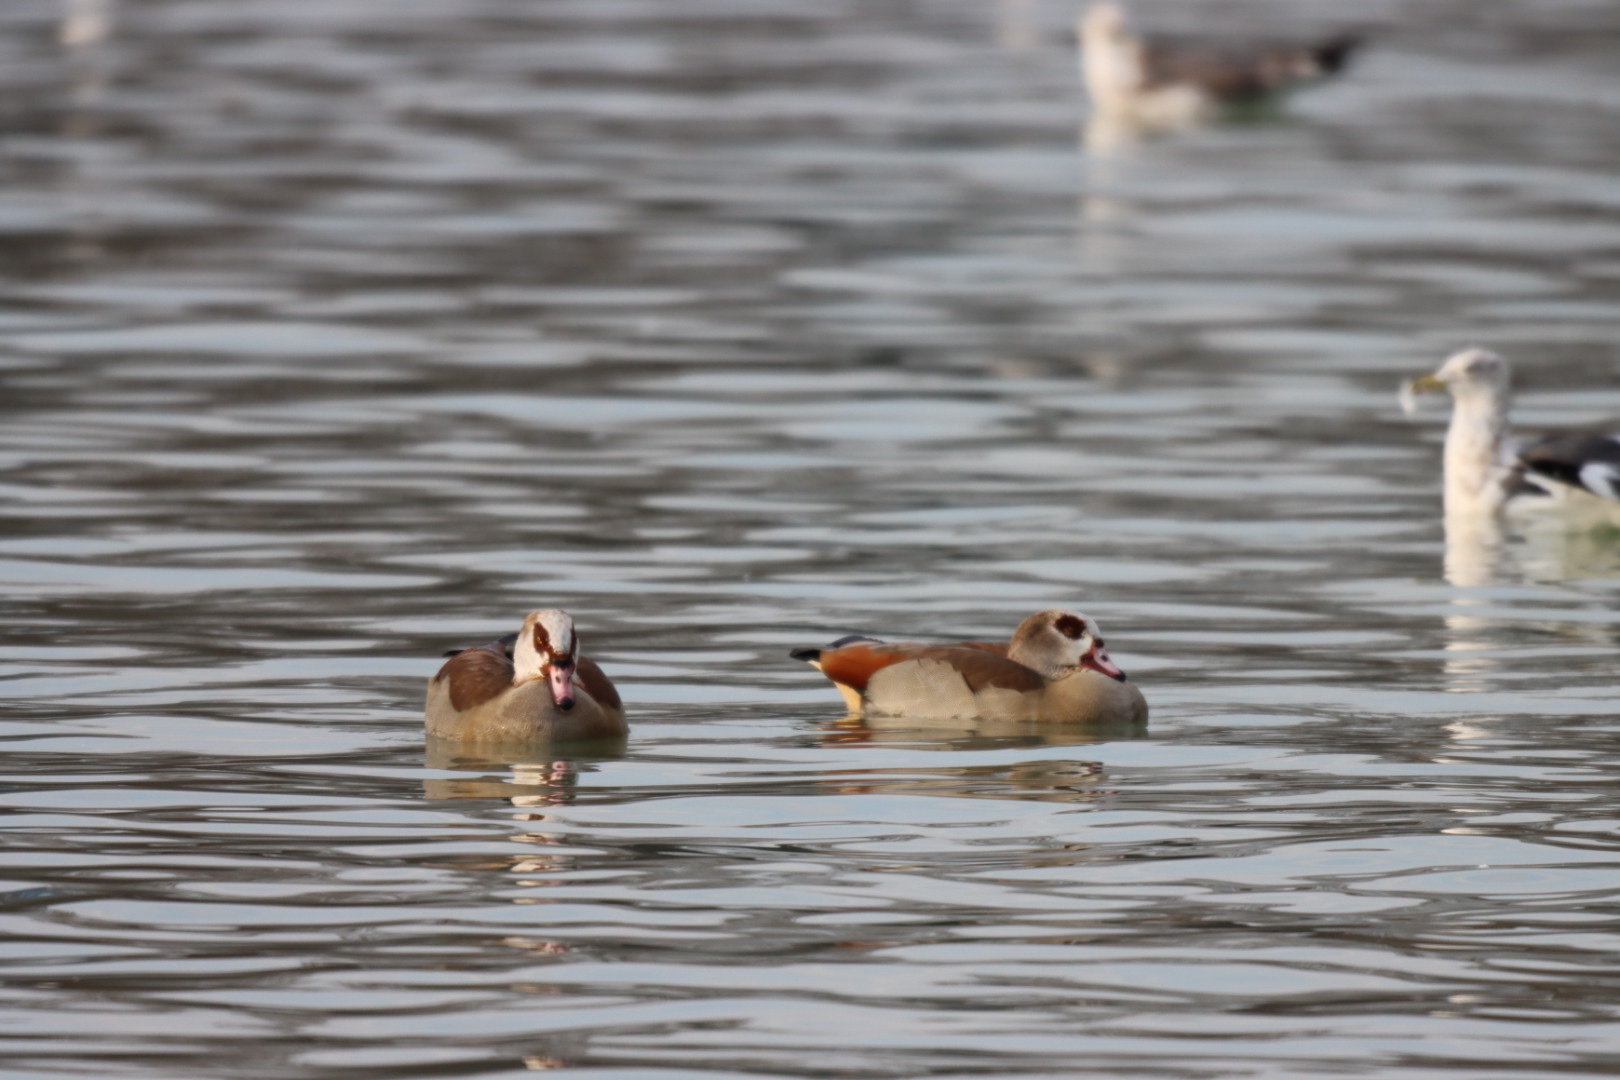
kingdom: Animalia
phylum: Chordata
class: Aves
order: Anseriformes
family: Anatidae
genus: Alopochen
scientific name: Alopochen aegyptiaca
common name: Egyptian goose
